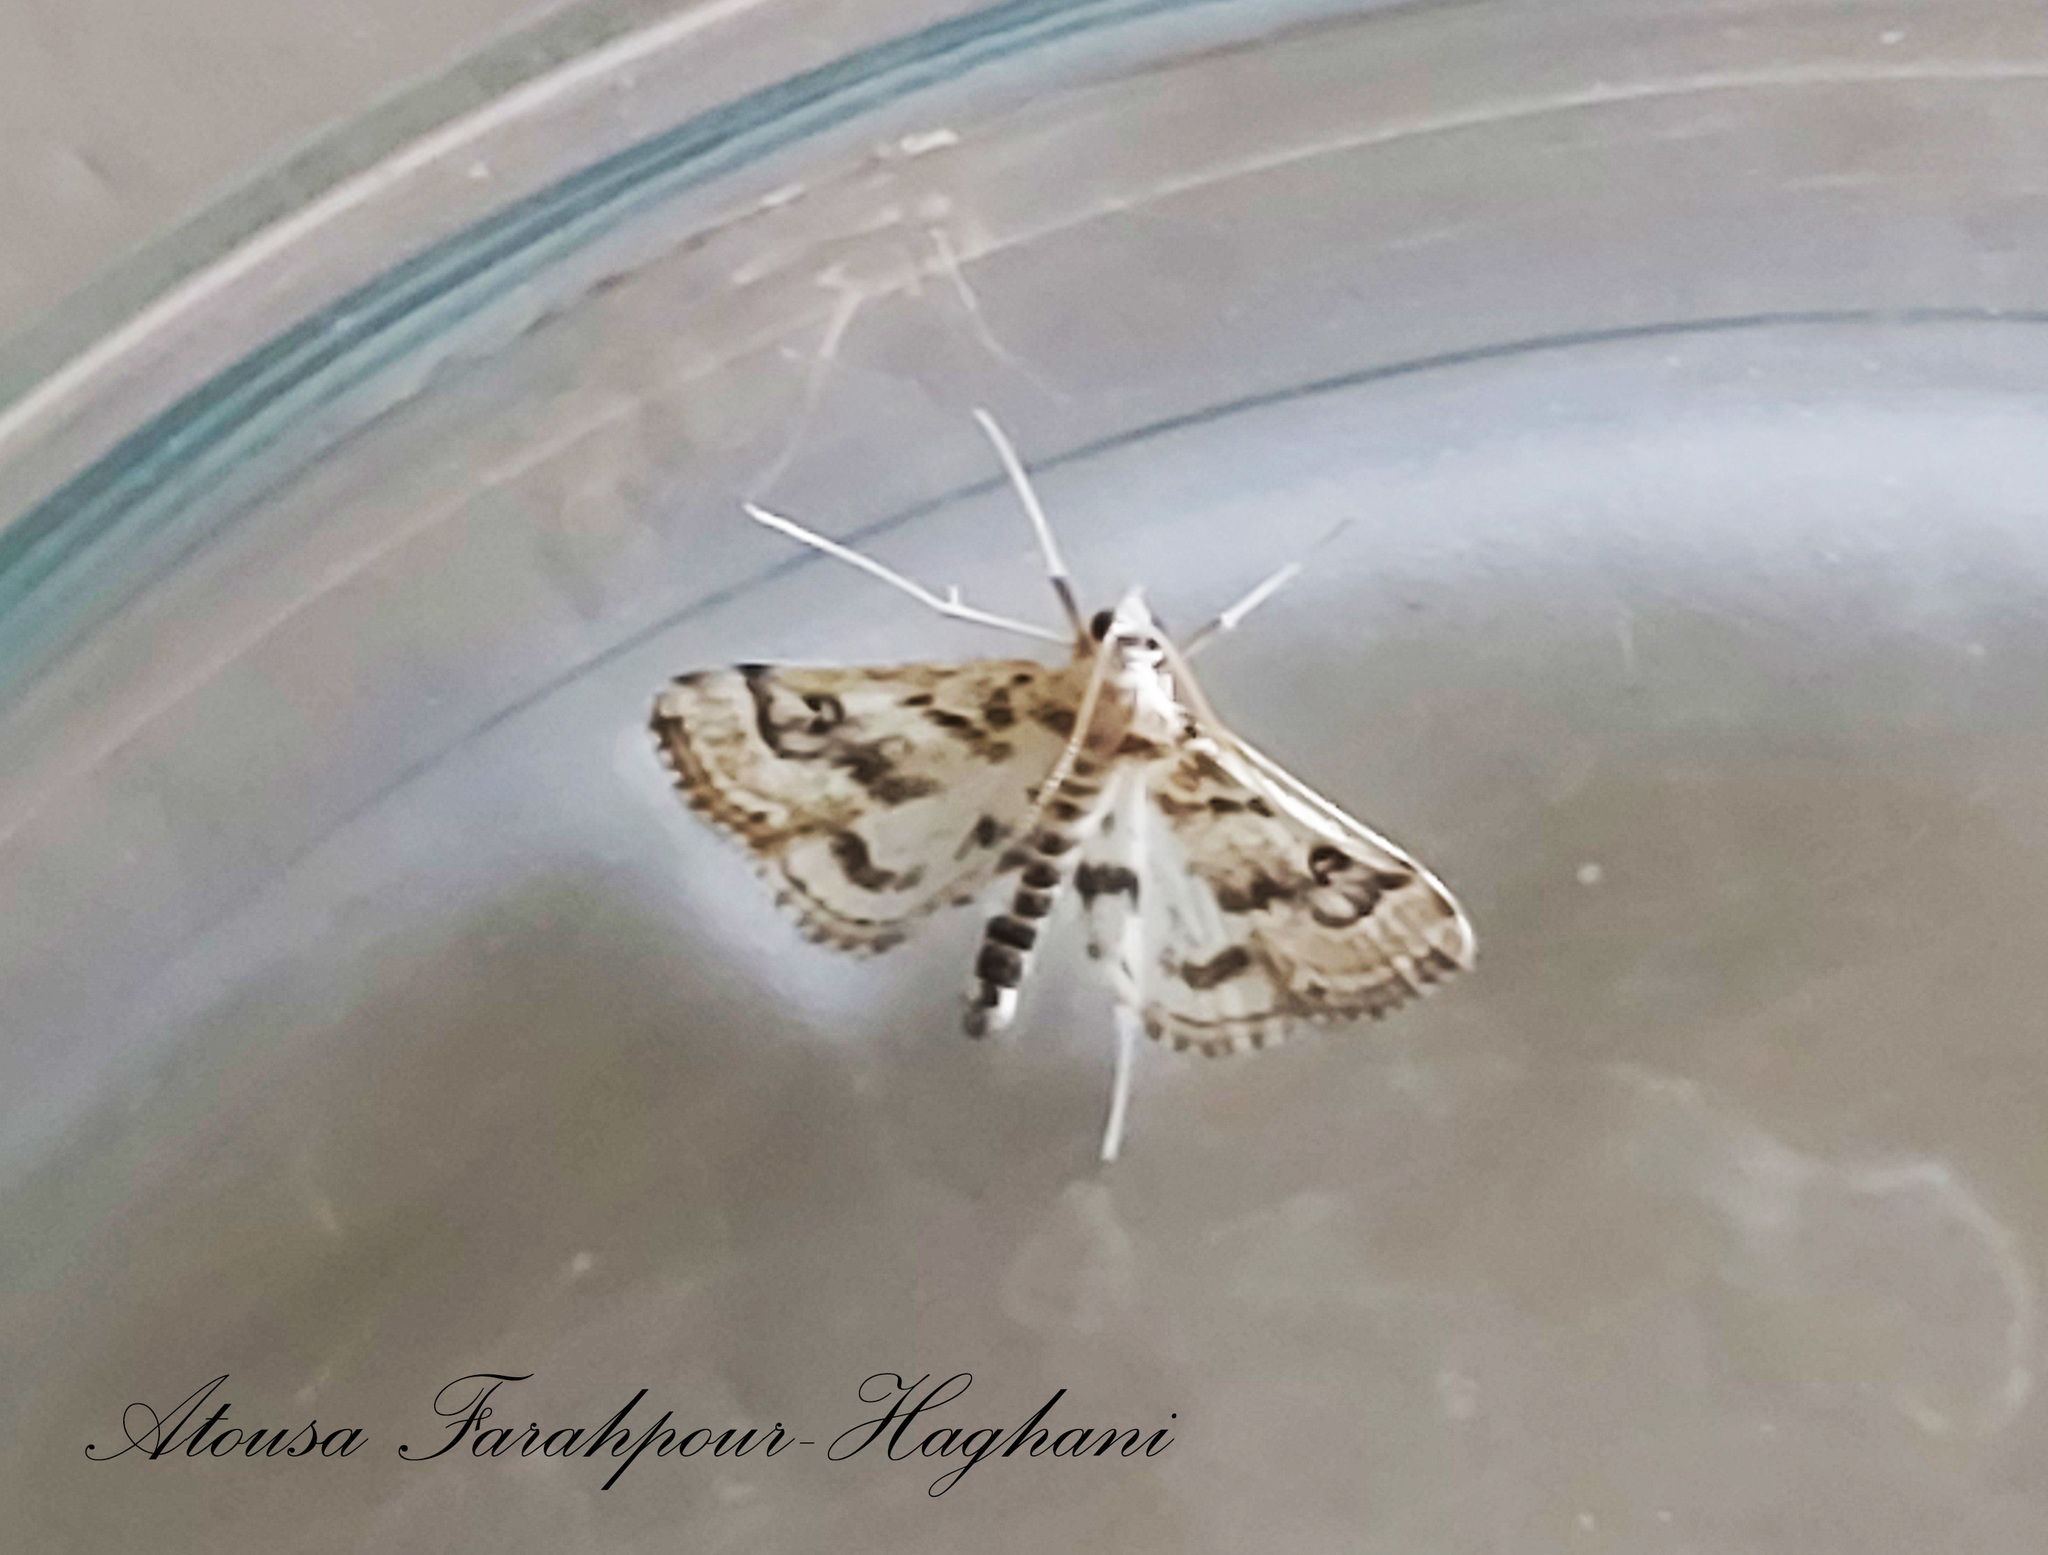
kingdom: Animalia
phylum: Arthropoda
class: Insecta
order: Lepidoptera
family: Crambidae
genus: Parapoynx
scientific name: Parapoynx affinialis
